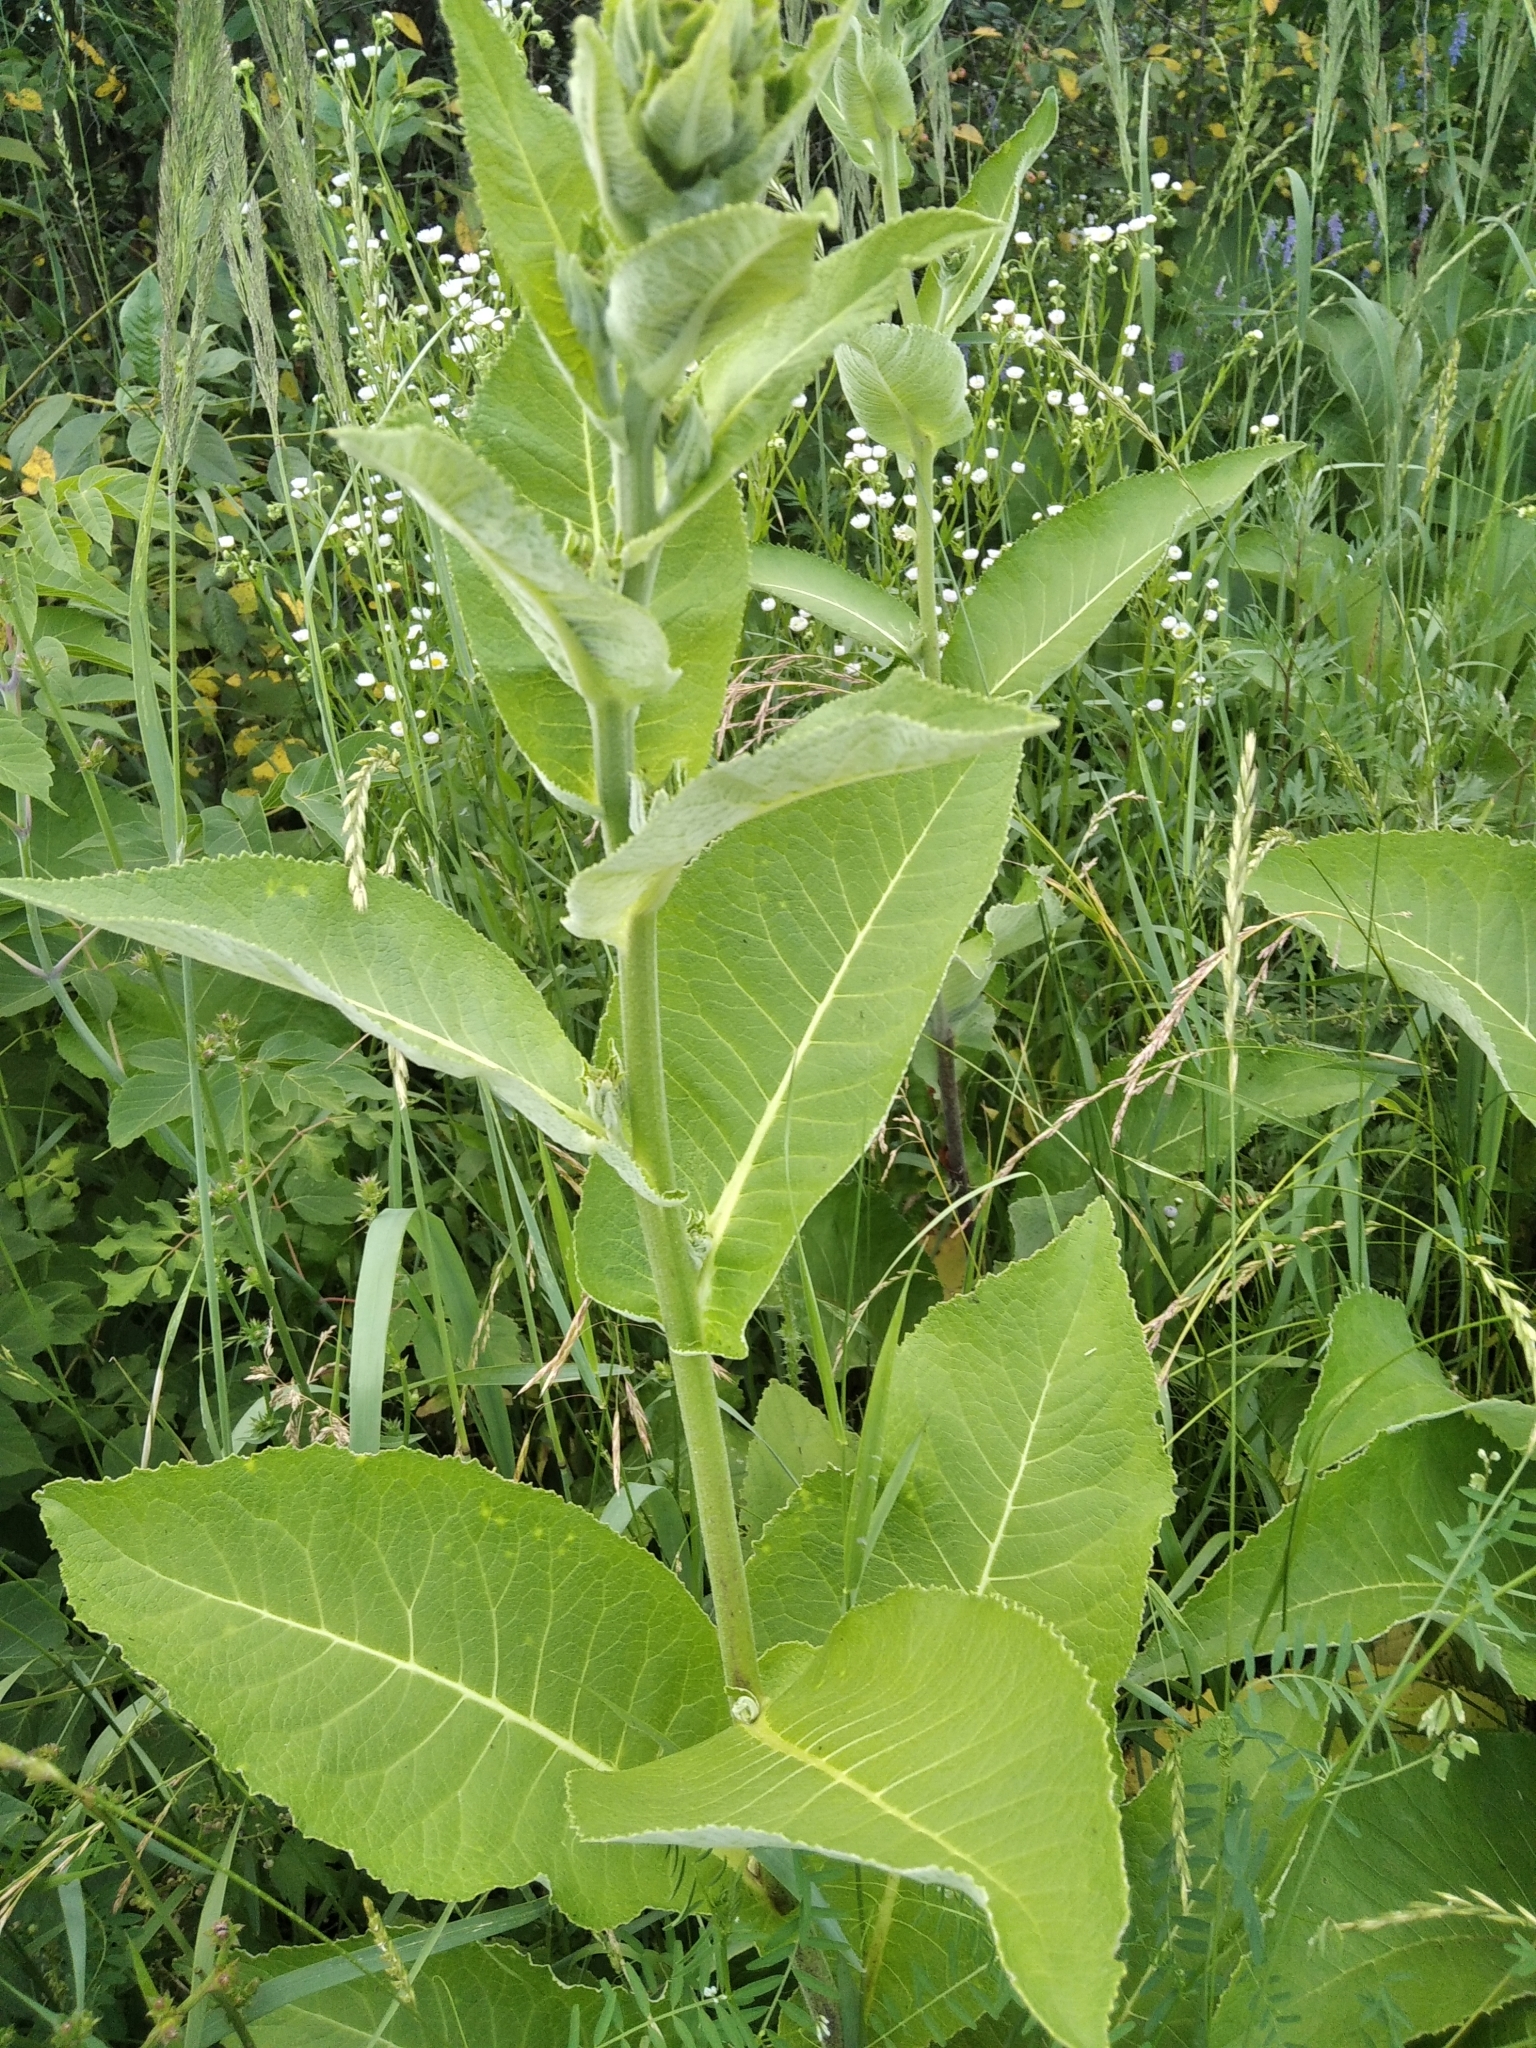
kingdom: Plantae
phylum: Tracheophyta
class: Magnoliopsida
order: Asterales
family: Asteraceae
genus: Inula
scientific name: Inula helenium
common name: Elecampane
